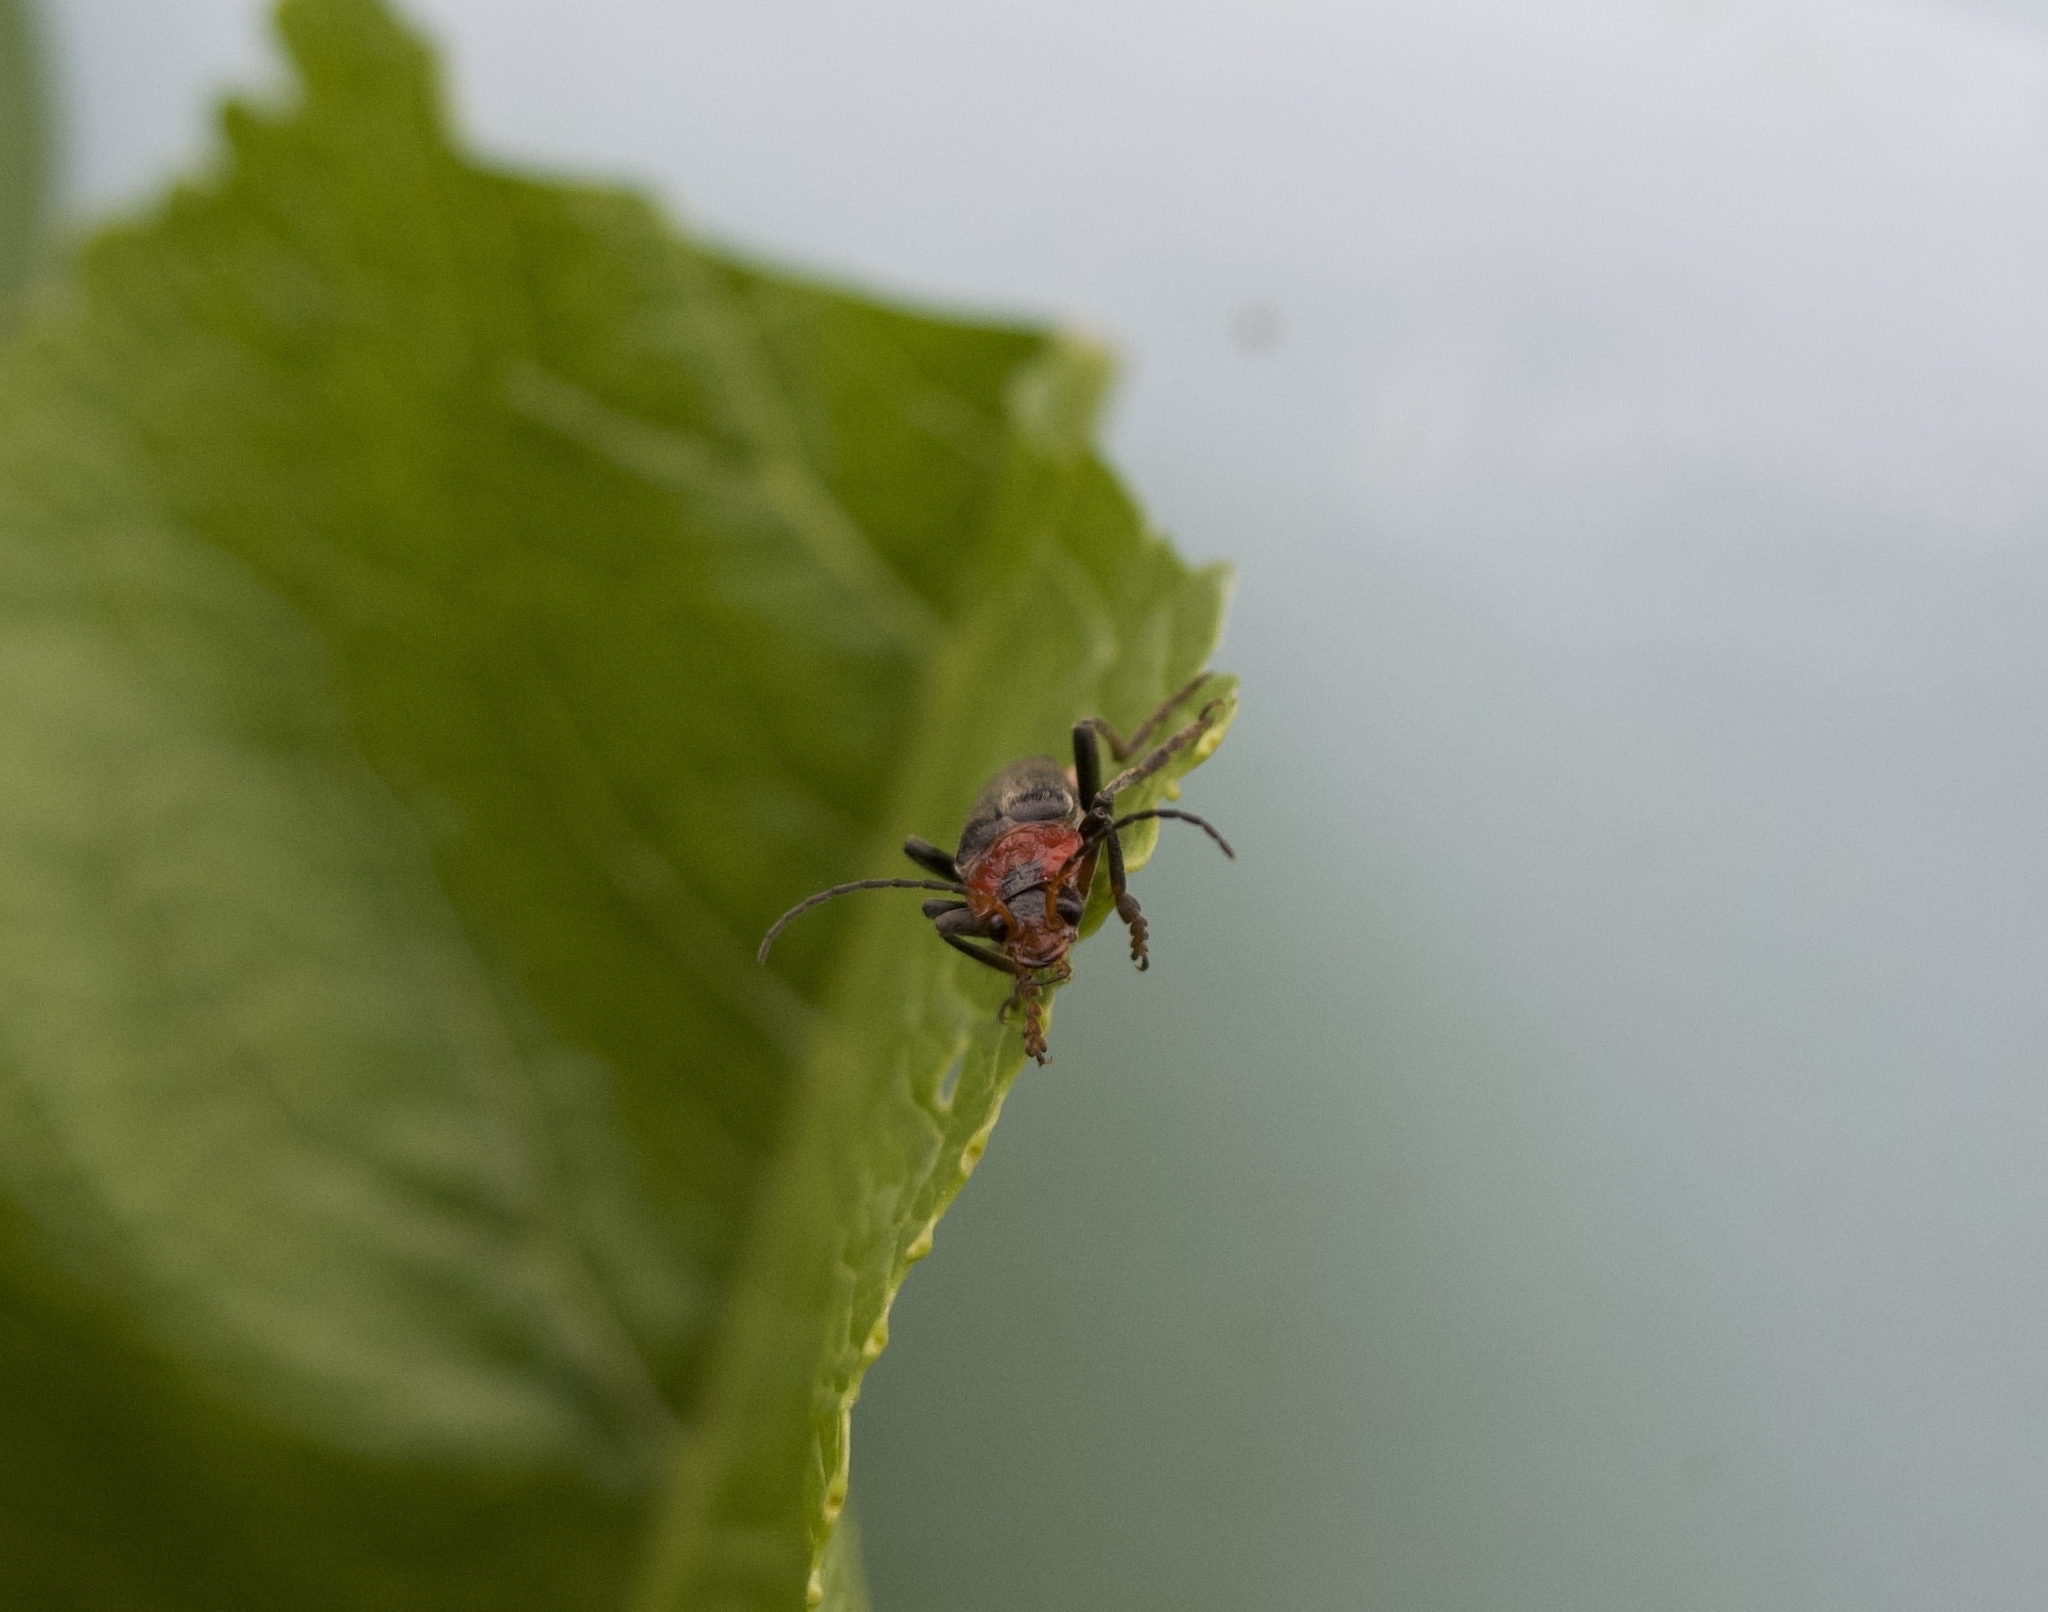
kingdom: Animalia
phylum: Arthropoda
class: Insecta
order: Coleoptera
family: Cantharidae
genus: Cantharis
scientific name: Cantharis fusca
